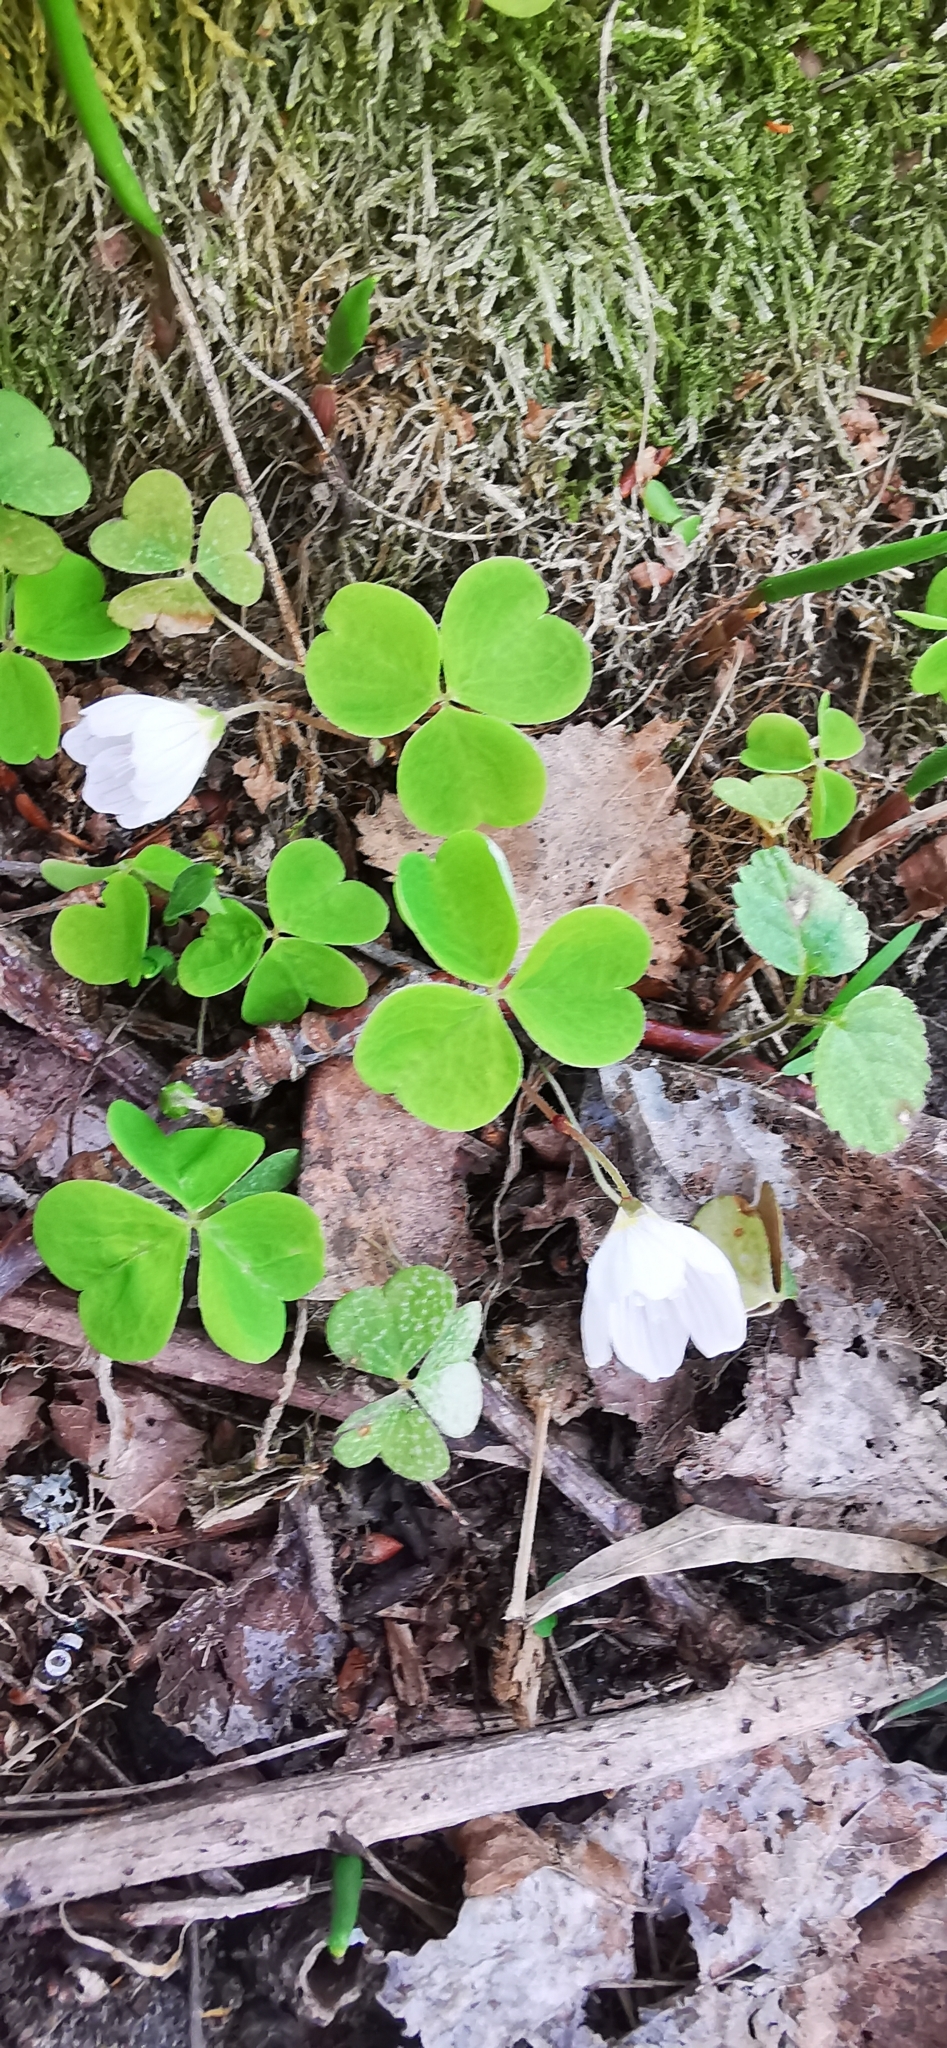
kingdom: Plantae
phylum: Tracheophyta
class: Magnoliopsida
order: Oxalidales
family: Oxalidaceae
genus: Oxalis
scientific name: Oxalis acetosella
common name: Wood-sorrel
